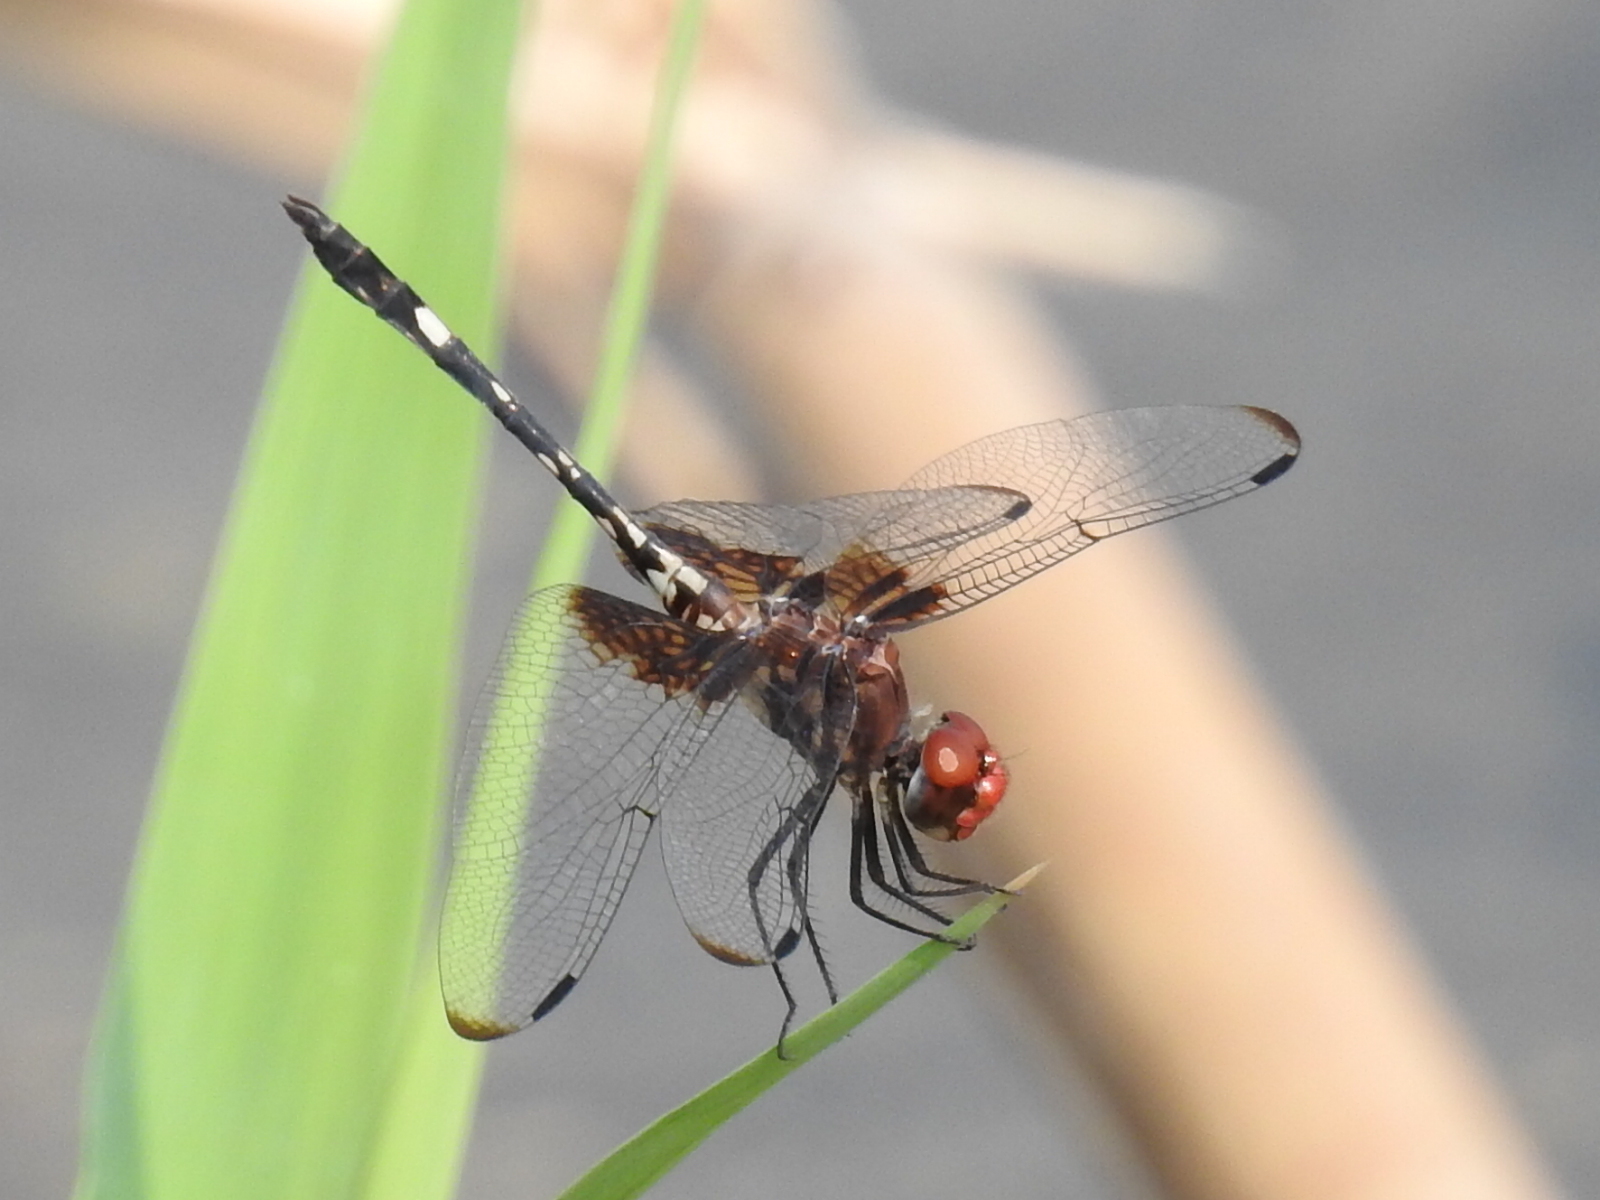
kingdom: Animalia
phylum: Arthropoda
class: Insecta
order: Odonata
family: Libellulidae
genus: Dythemis
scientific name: Dythemis fugax
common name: Checkered setwing
